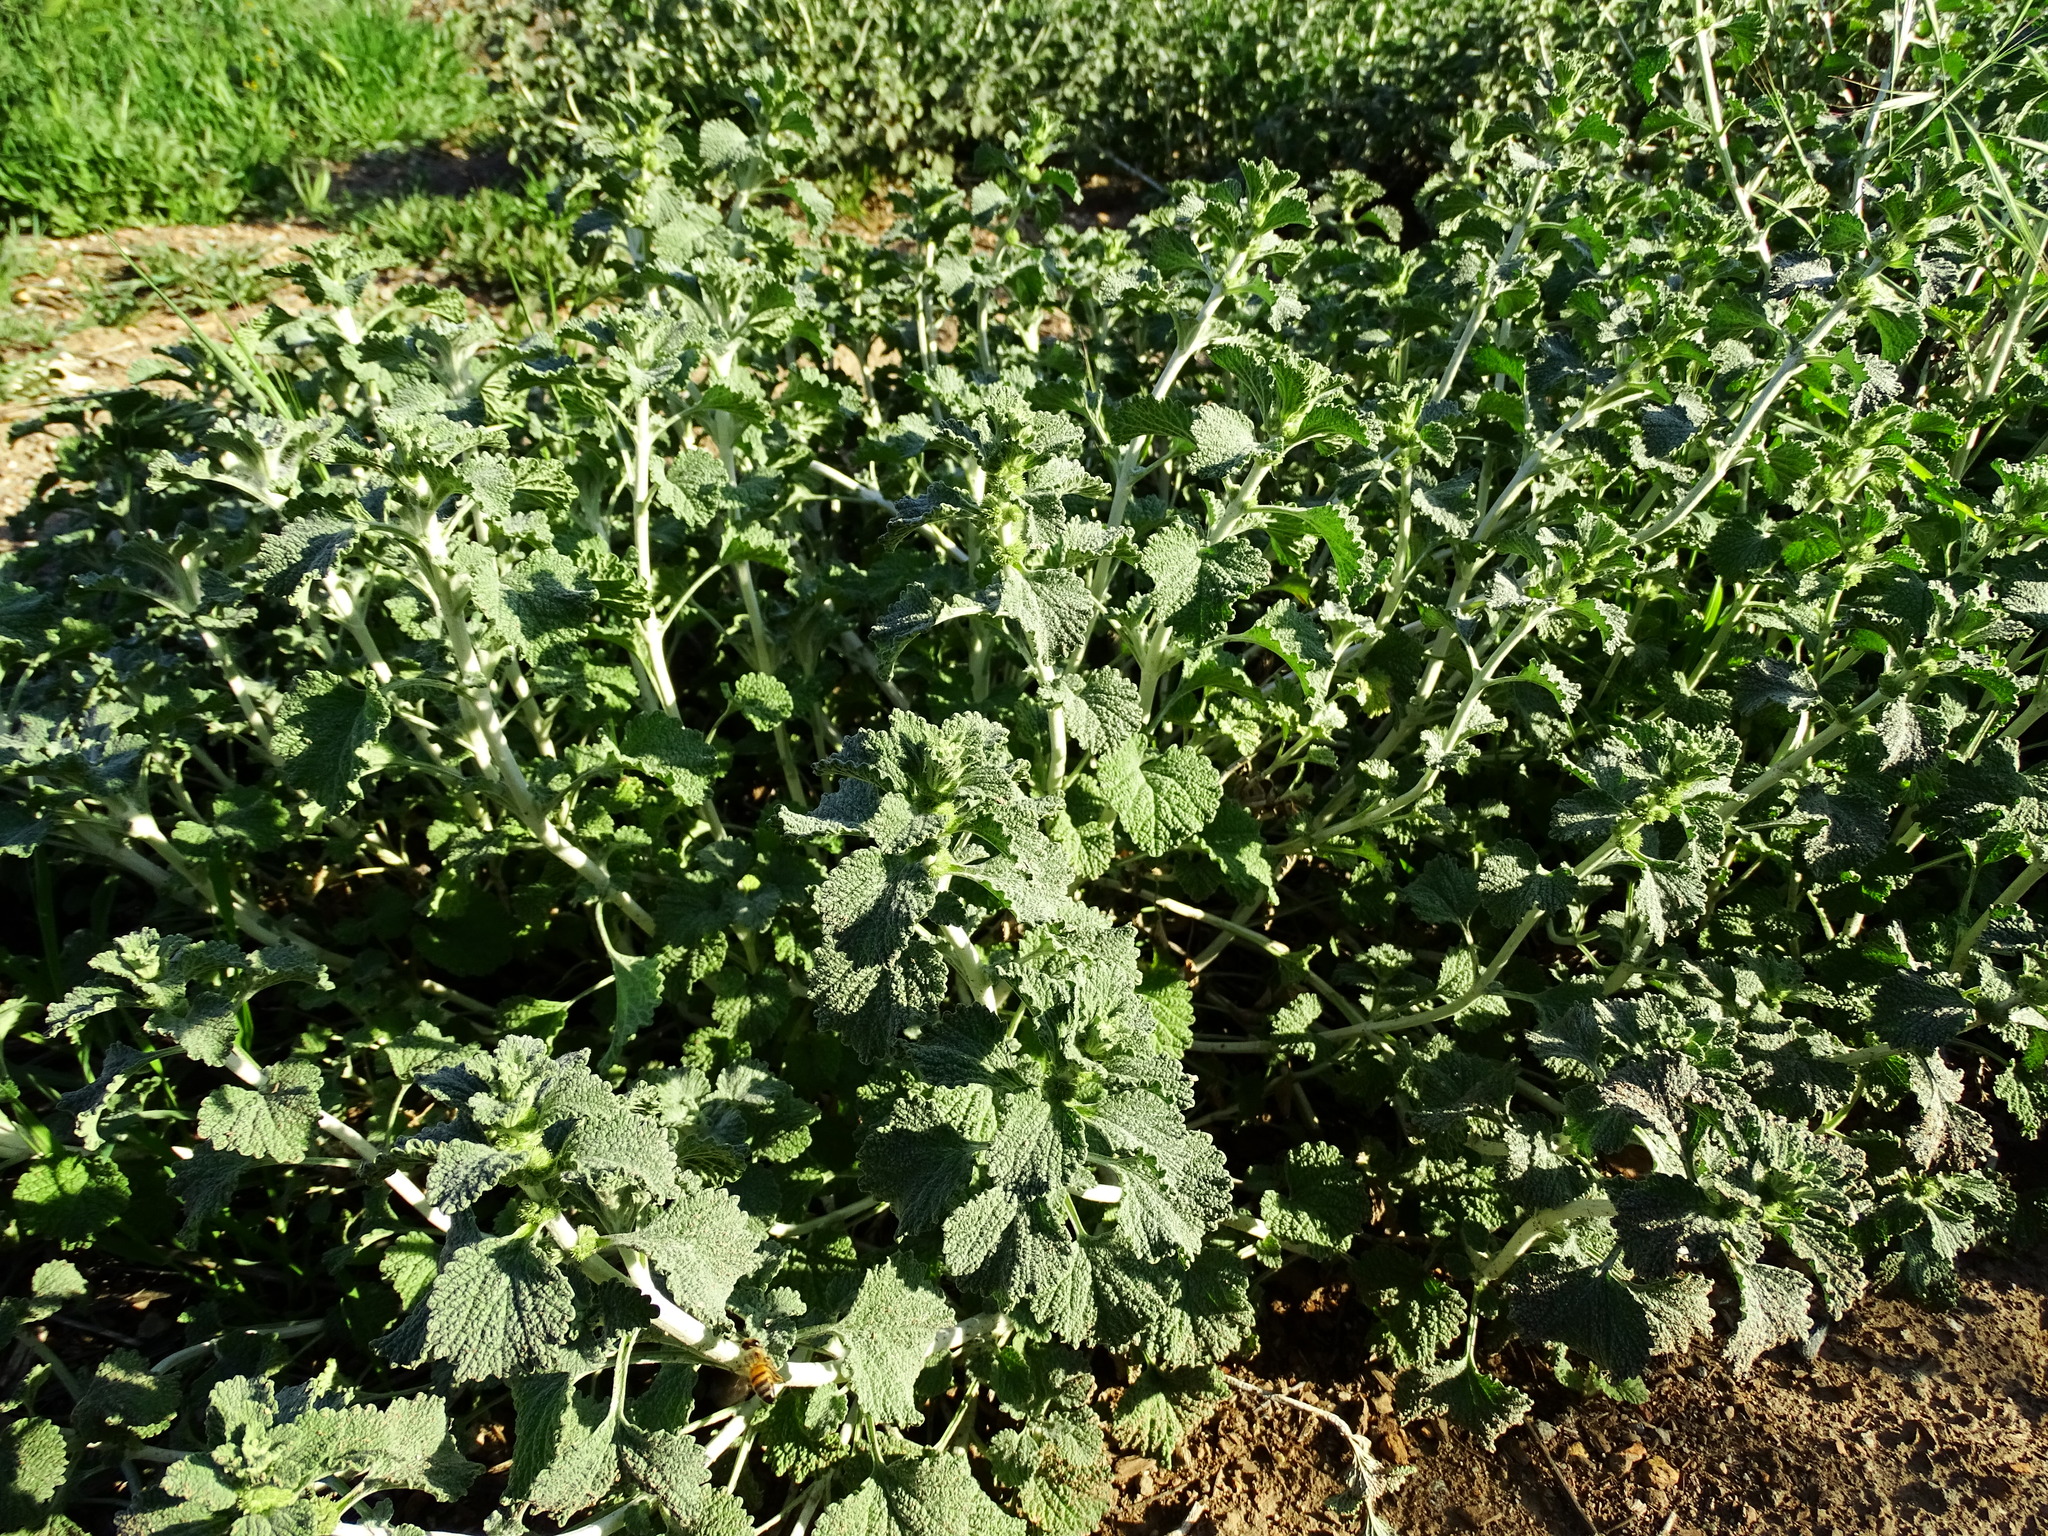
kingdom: Plantae
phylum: Tracheophyta
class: Magnoliopsida
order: Lamiales
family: Lamiaceae
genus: Marrubium
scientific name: Marrubium vulgare
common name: Horehound
